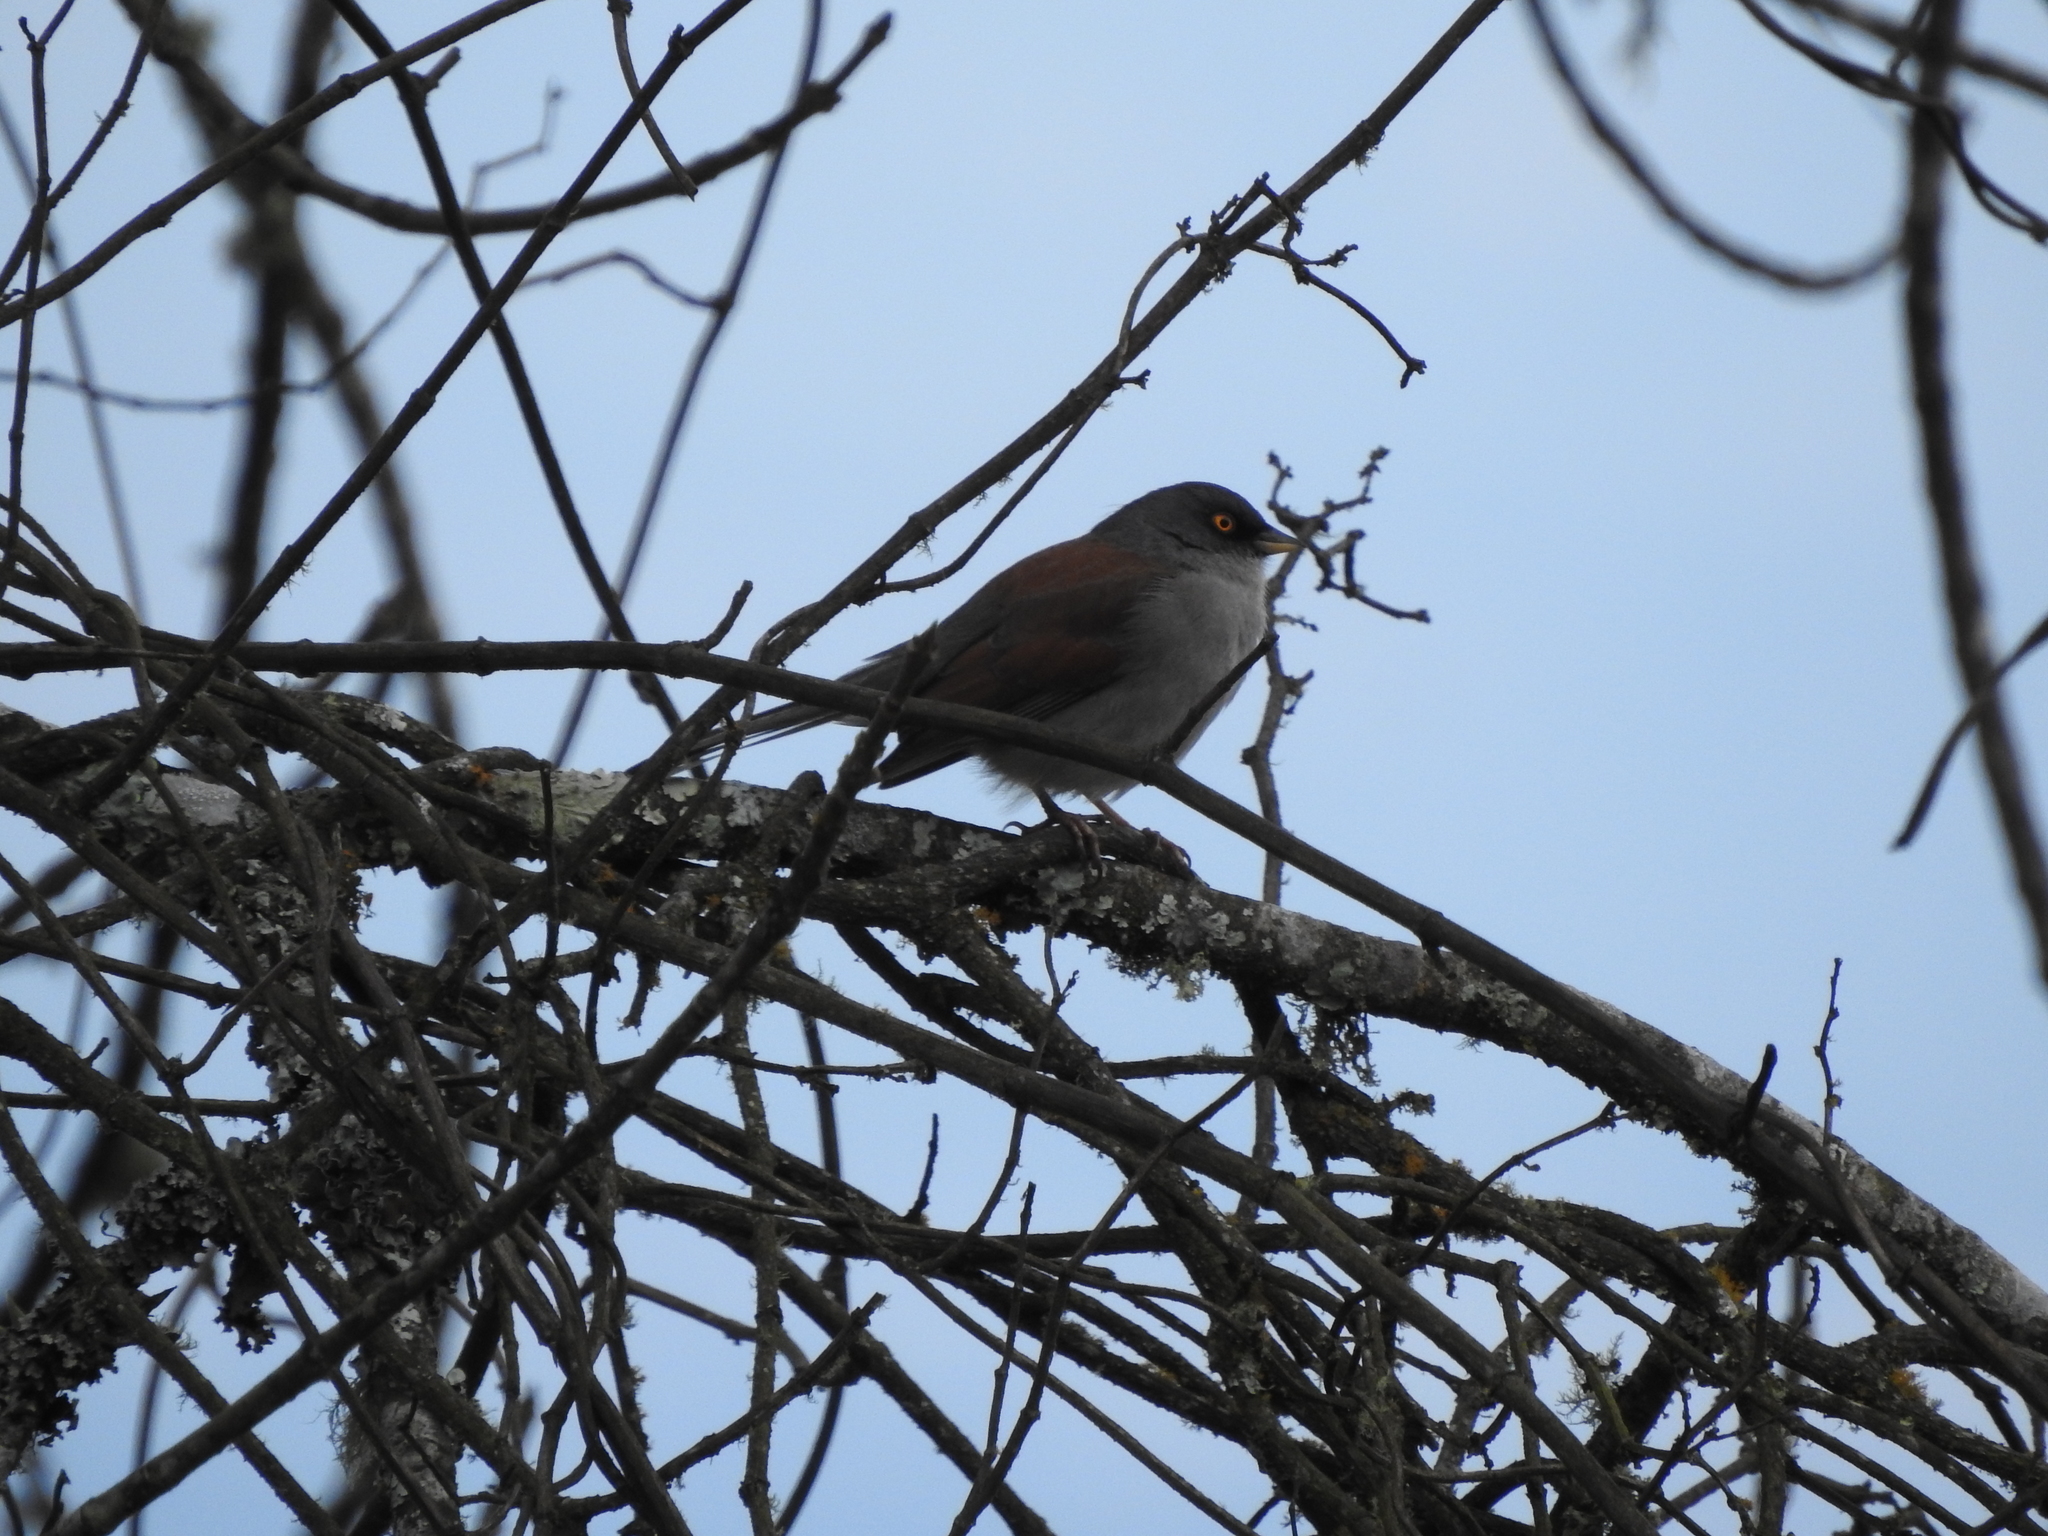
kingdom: Animalia
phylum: Chordata
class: Aves
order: Passeriformes
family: Passerellidae
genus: Junco
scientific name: Junco phaeonotus
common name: Yellow-eyed junco
